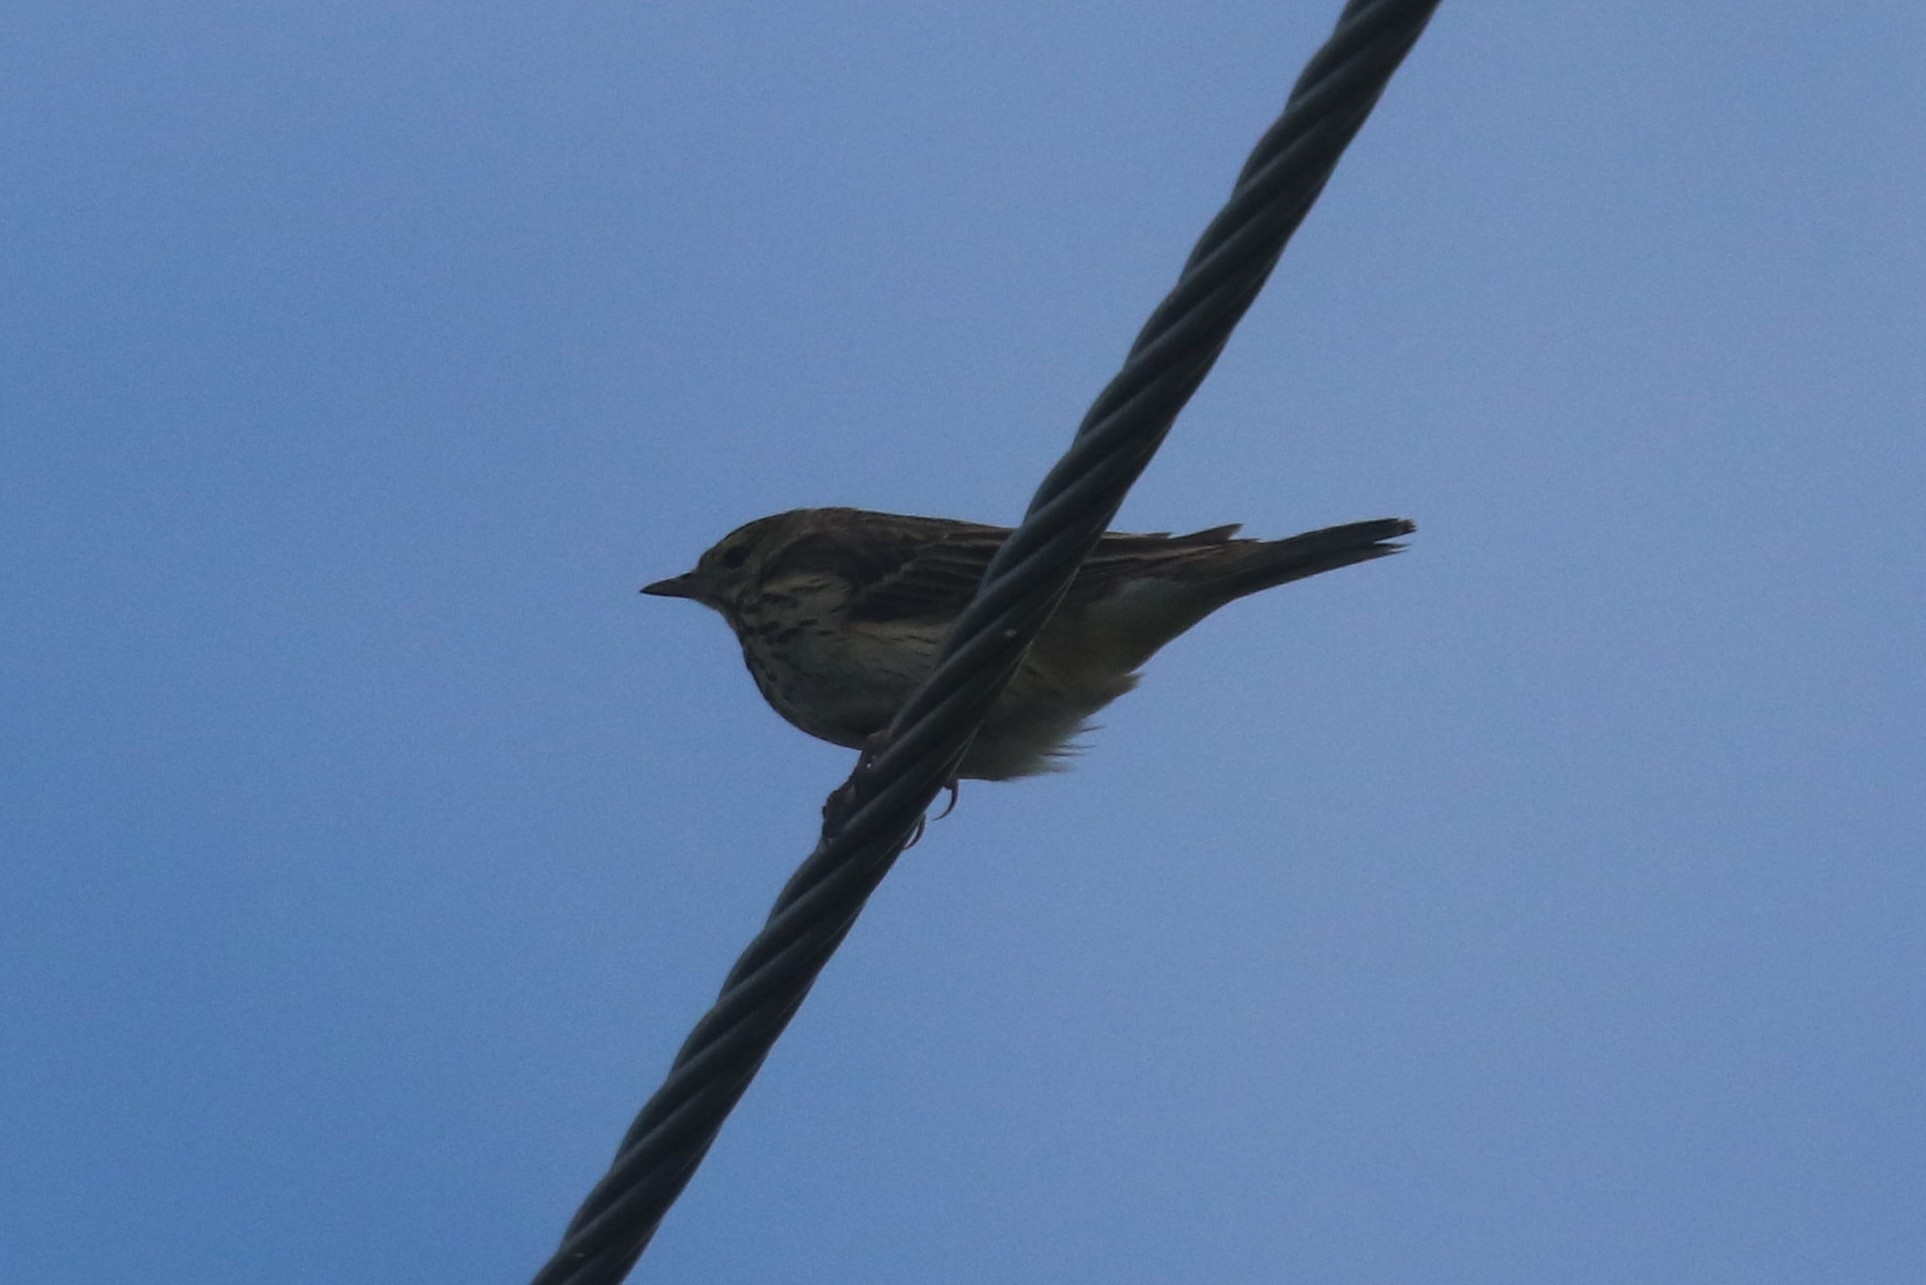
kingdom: Animalia
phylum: Chordata
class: Aves
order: Passeriformes
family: Motacillidae
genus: Anthus
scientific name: Anthus trivialis
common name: Tree pipit
